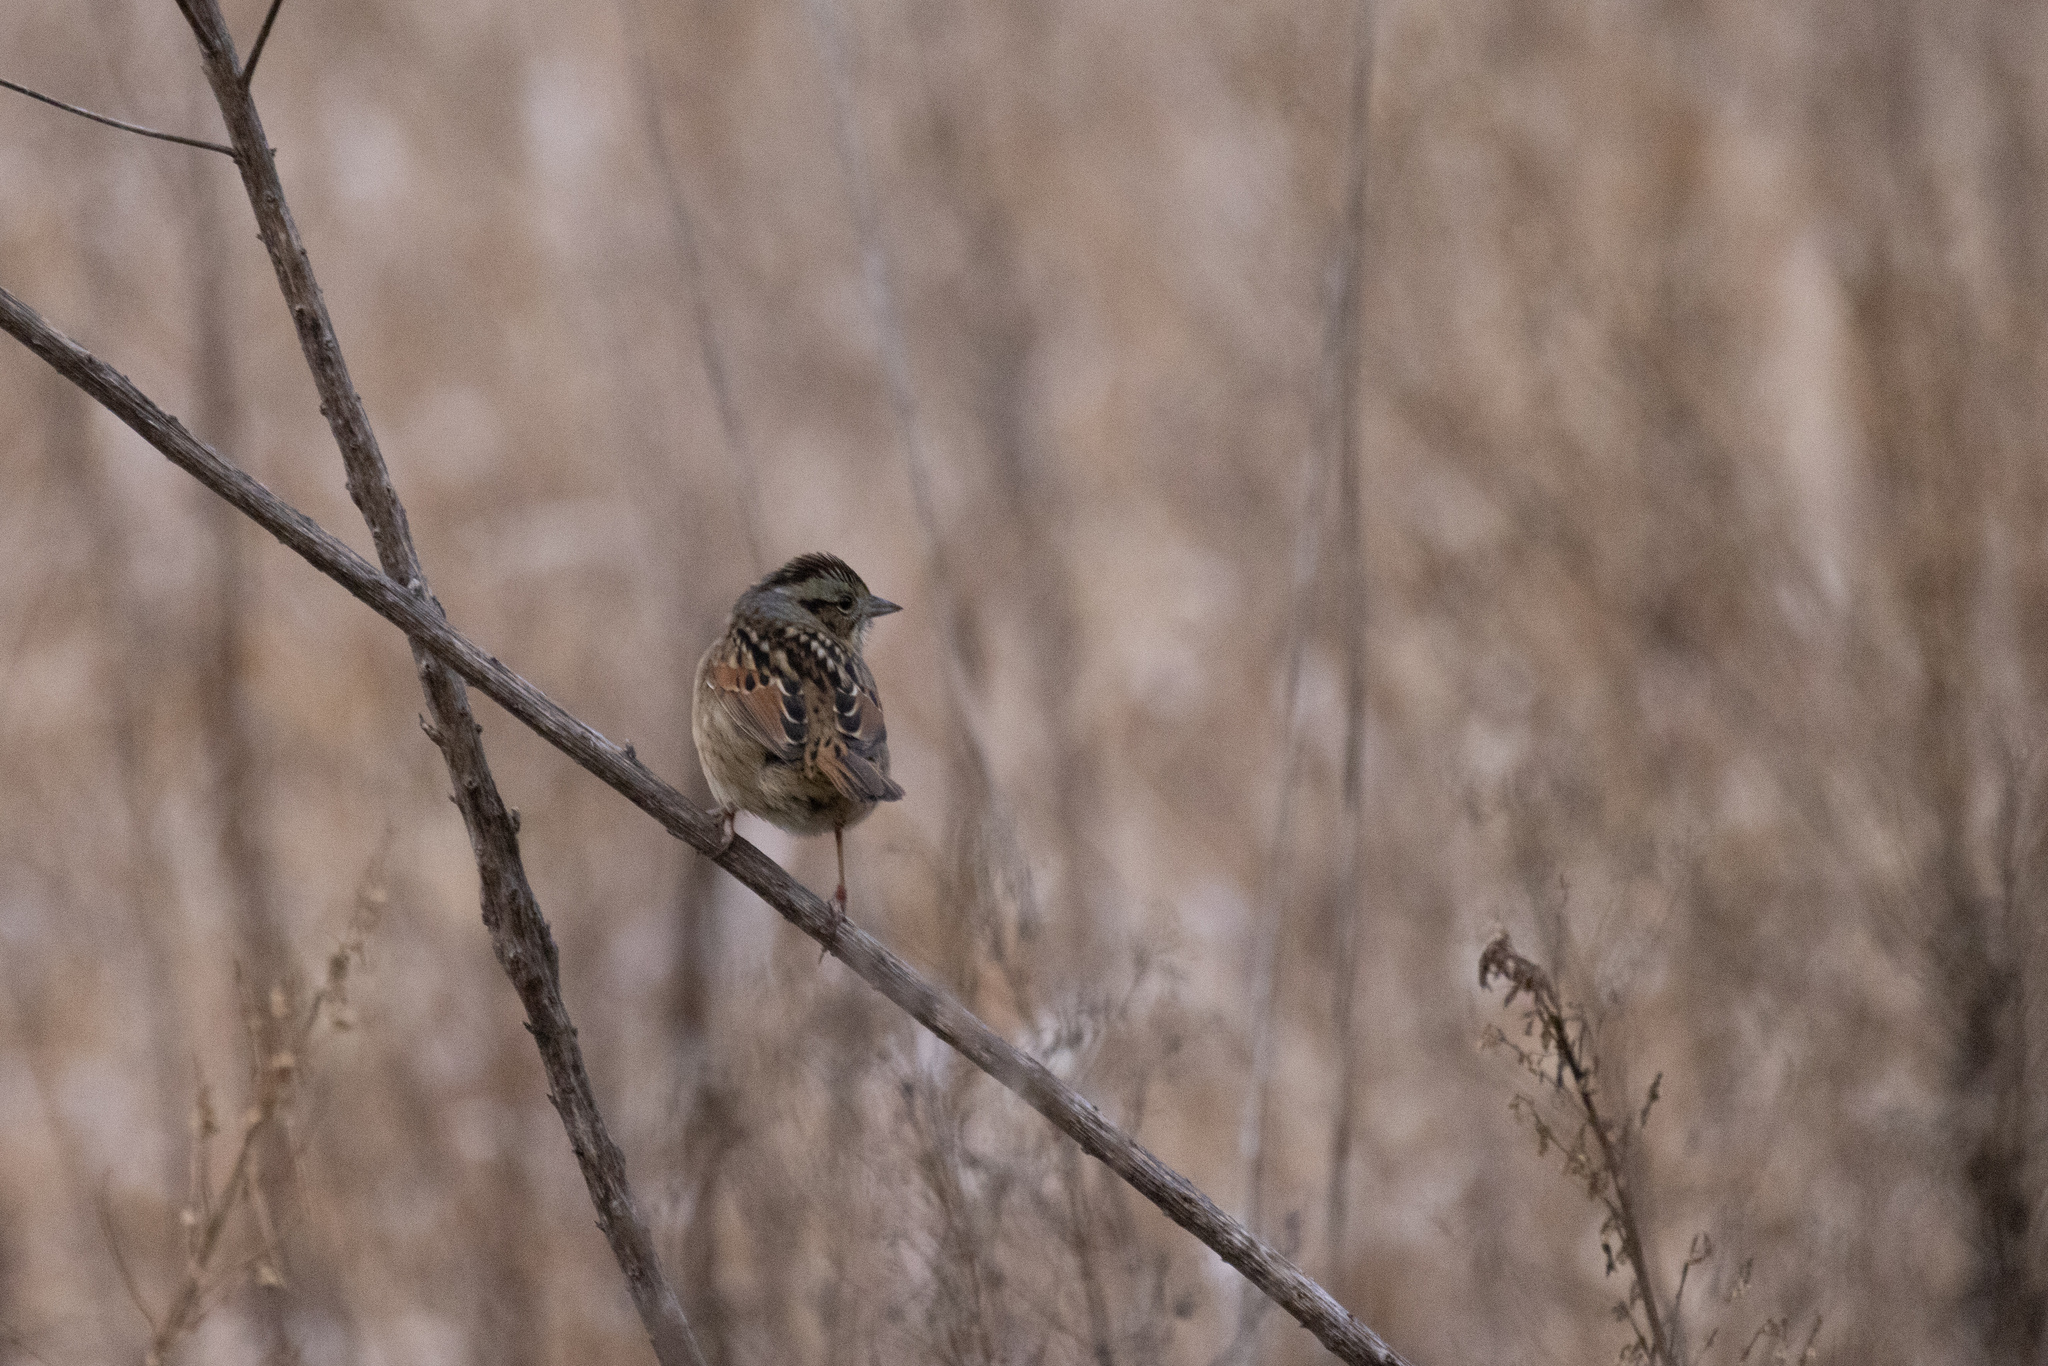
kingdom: Animalia
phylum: Chordata
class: Aves
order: Passeriformes
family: Passerellidae
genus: Melospiza
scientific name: Melospiza georgiana
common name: Swamp sparrow
